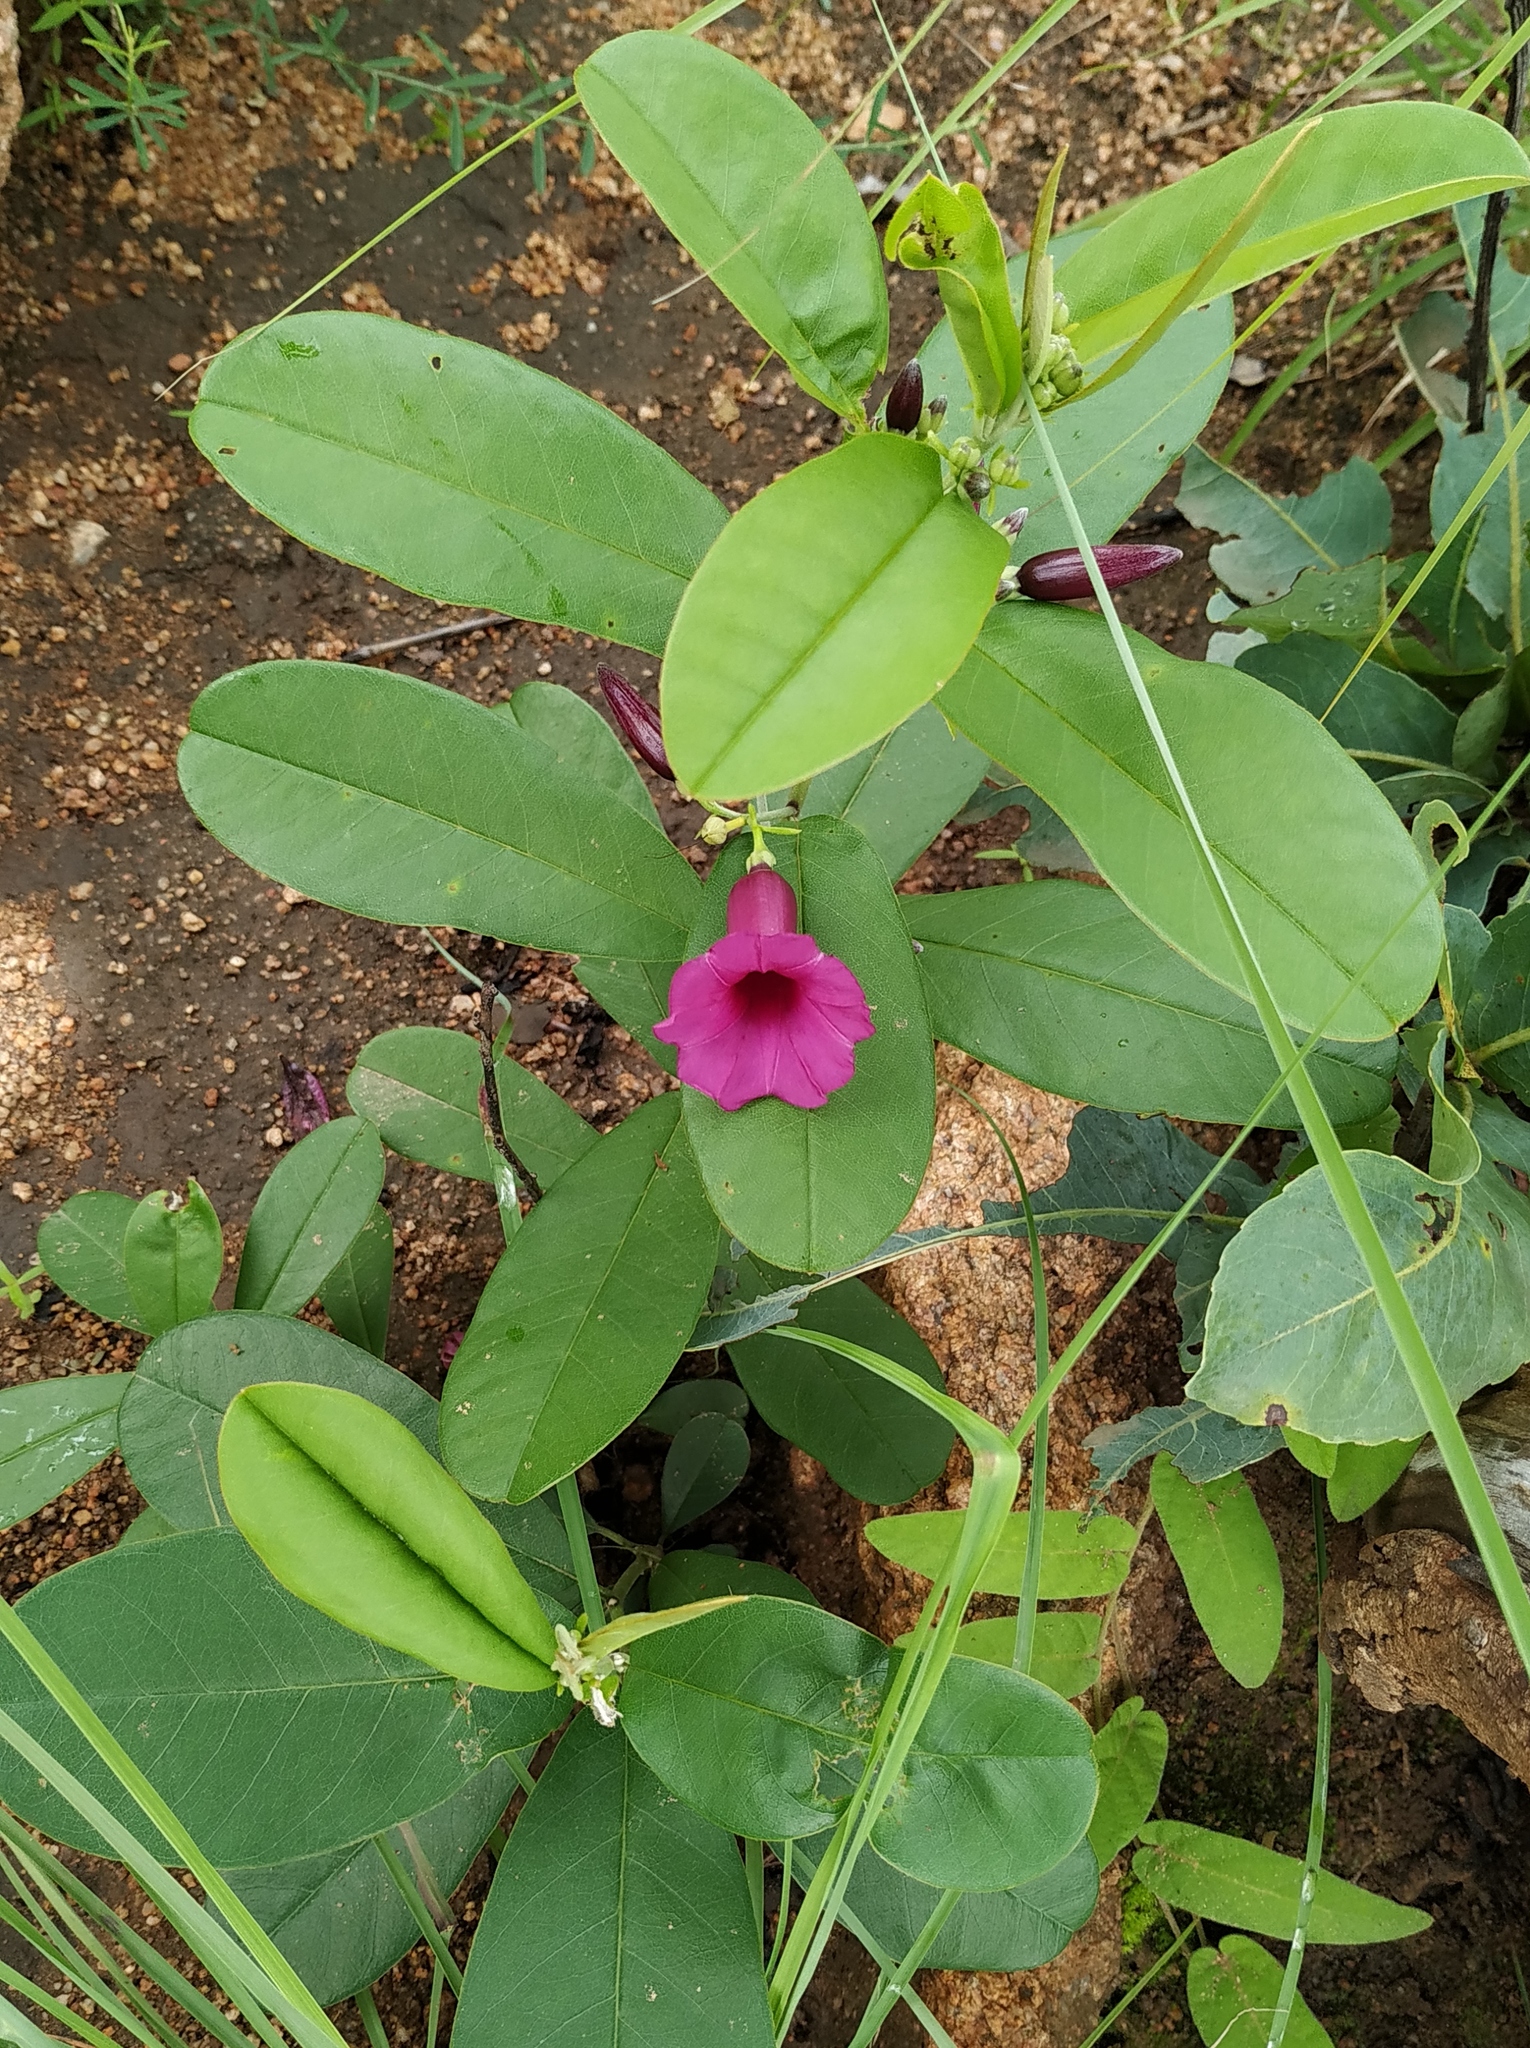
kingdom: Plantae
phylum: Tracheophyta
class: Magnoliopsida
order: Solanales
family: Convolvulaceae
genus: Argyreia
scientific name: Argyreia cuneata
